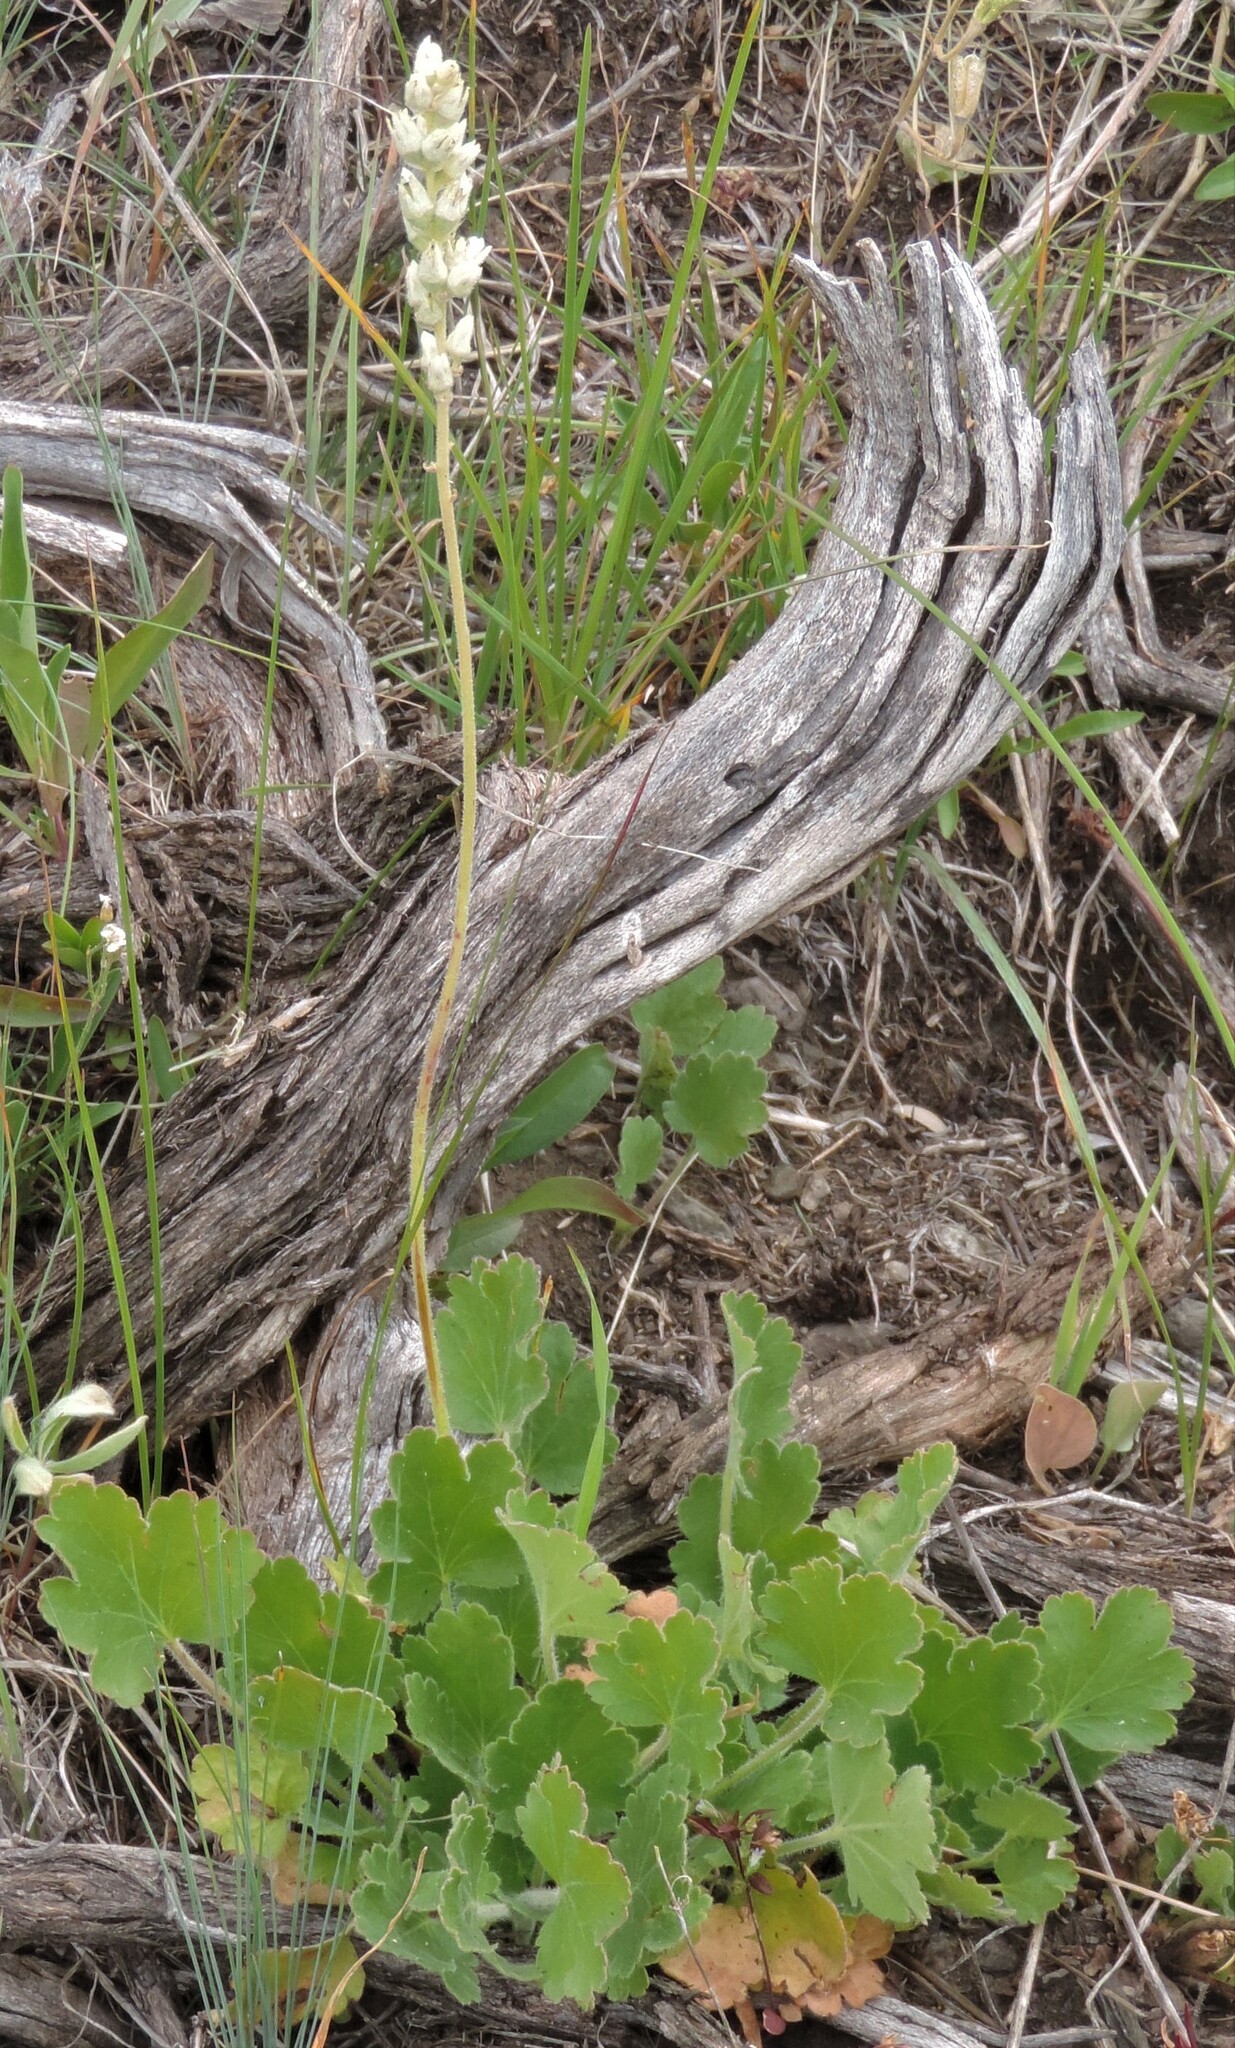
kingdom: Plantae
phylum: Tracheophyta
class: Magnoliopsida
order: Saxifragales
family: Saxifragaceae
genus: Heuchera
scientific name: Heuchera cylindrica
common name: Mat alumroot
